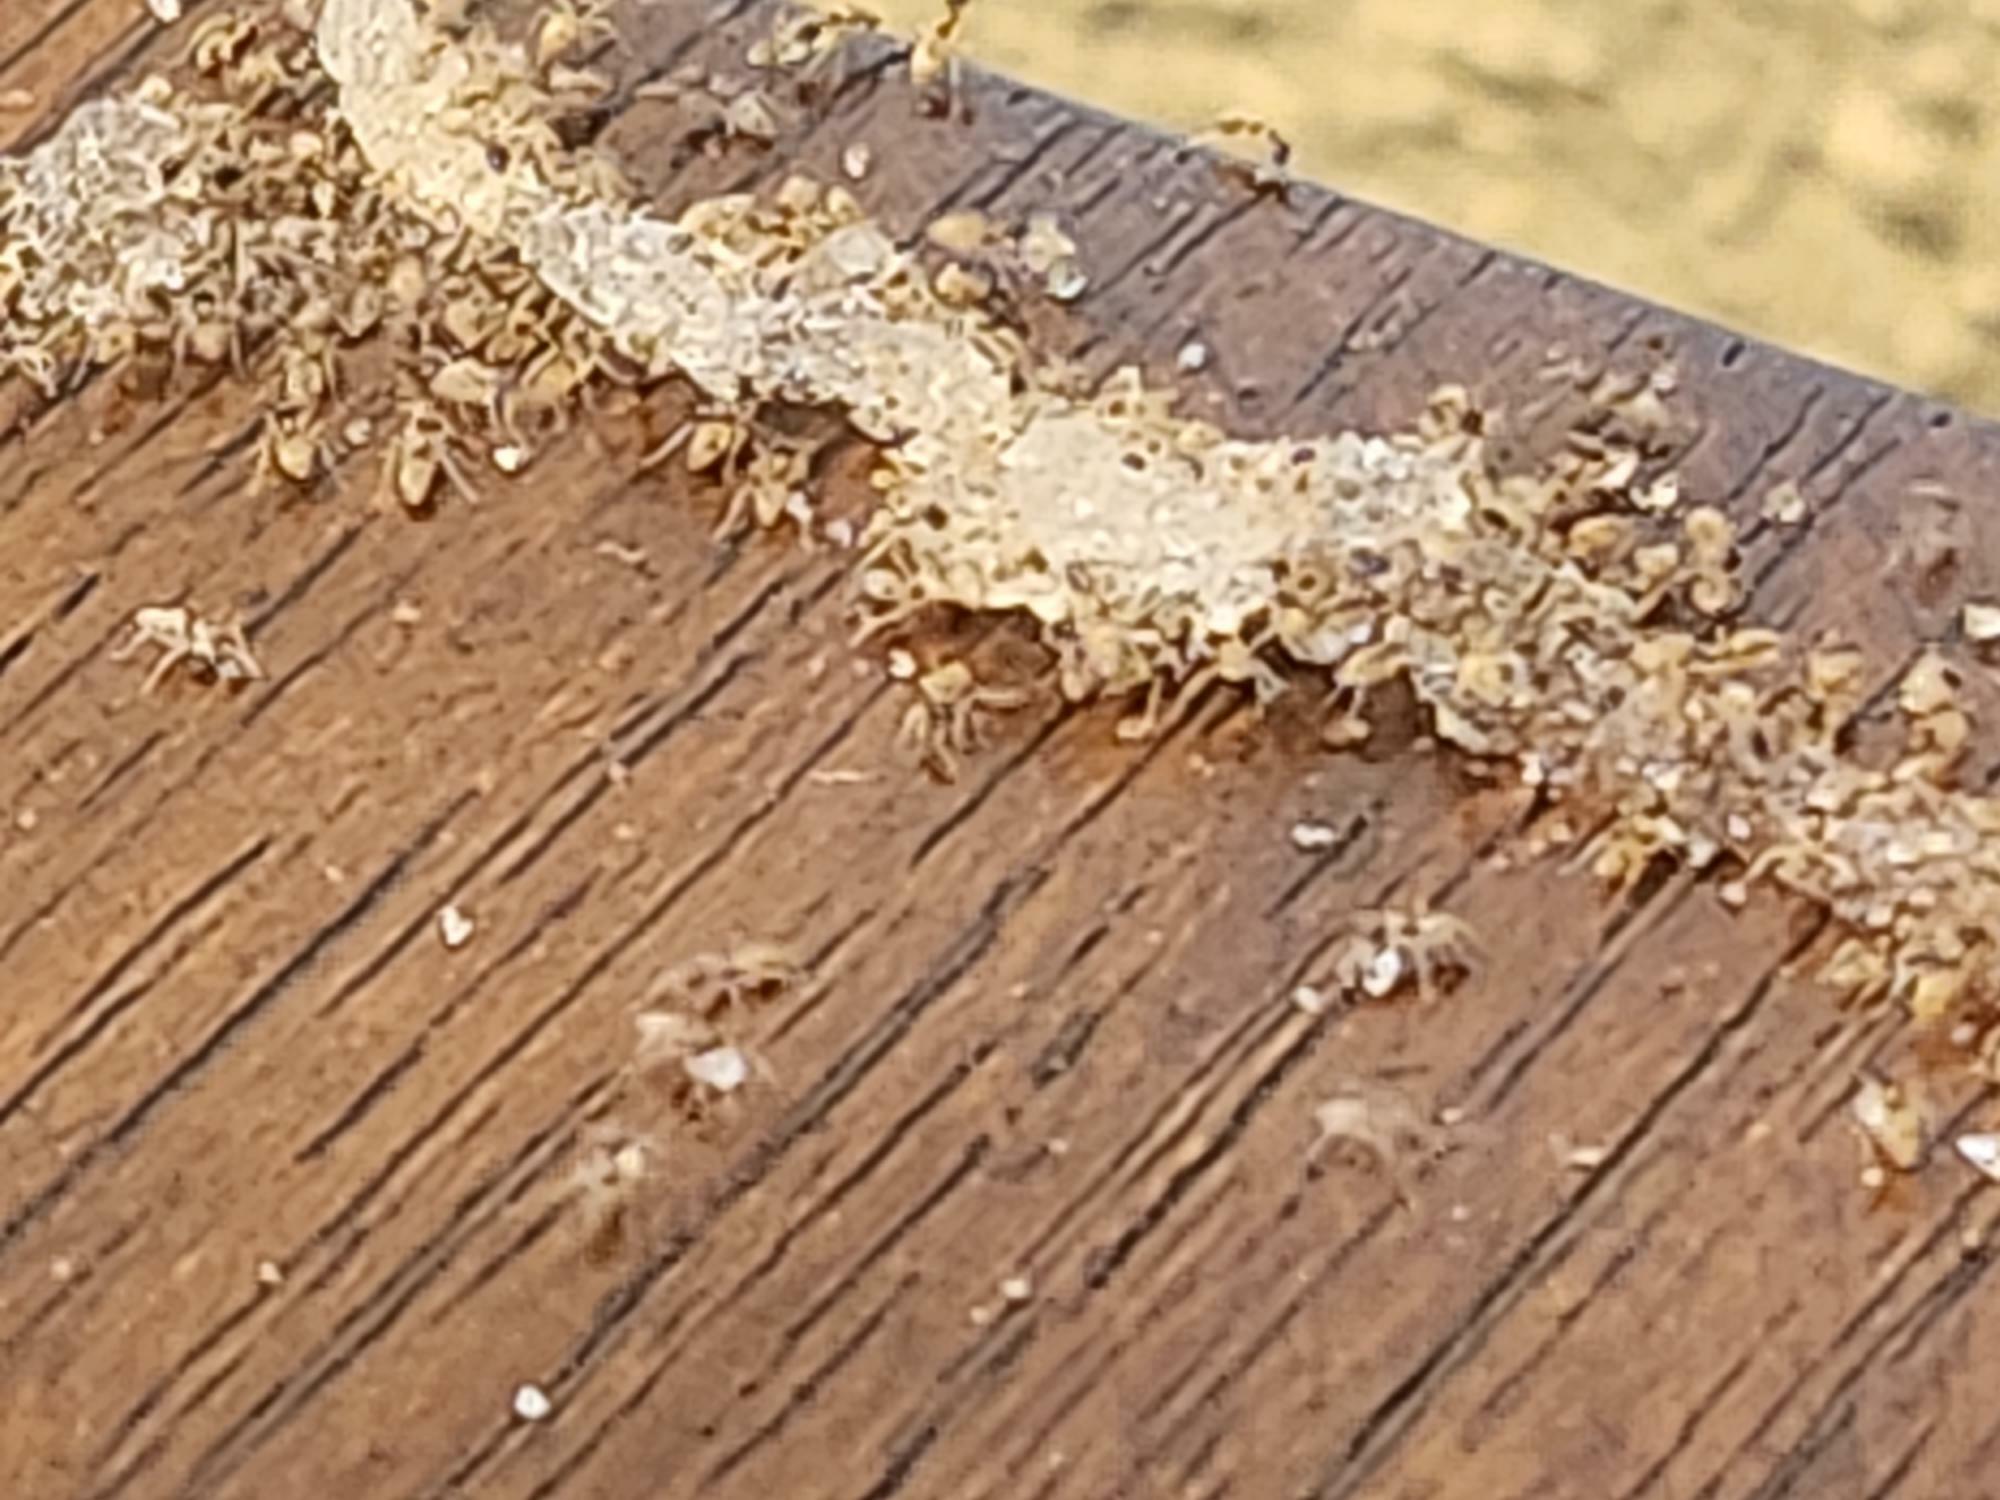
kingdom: Animalia
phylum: Arthropoda
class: Insecta
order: Hymenoptera
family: Formicidae
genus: Tapinoma
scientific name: Tapinoma melanocephalum
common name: Ghost ant
